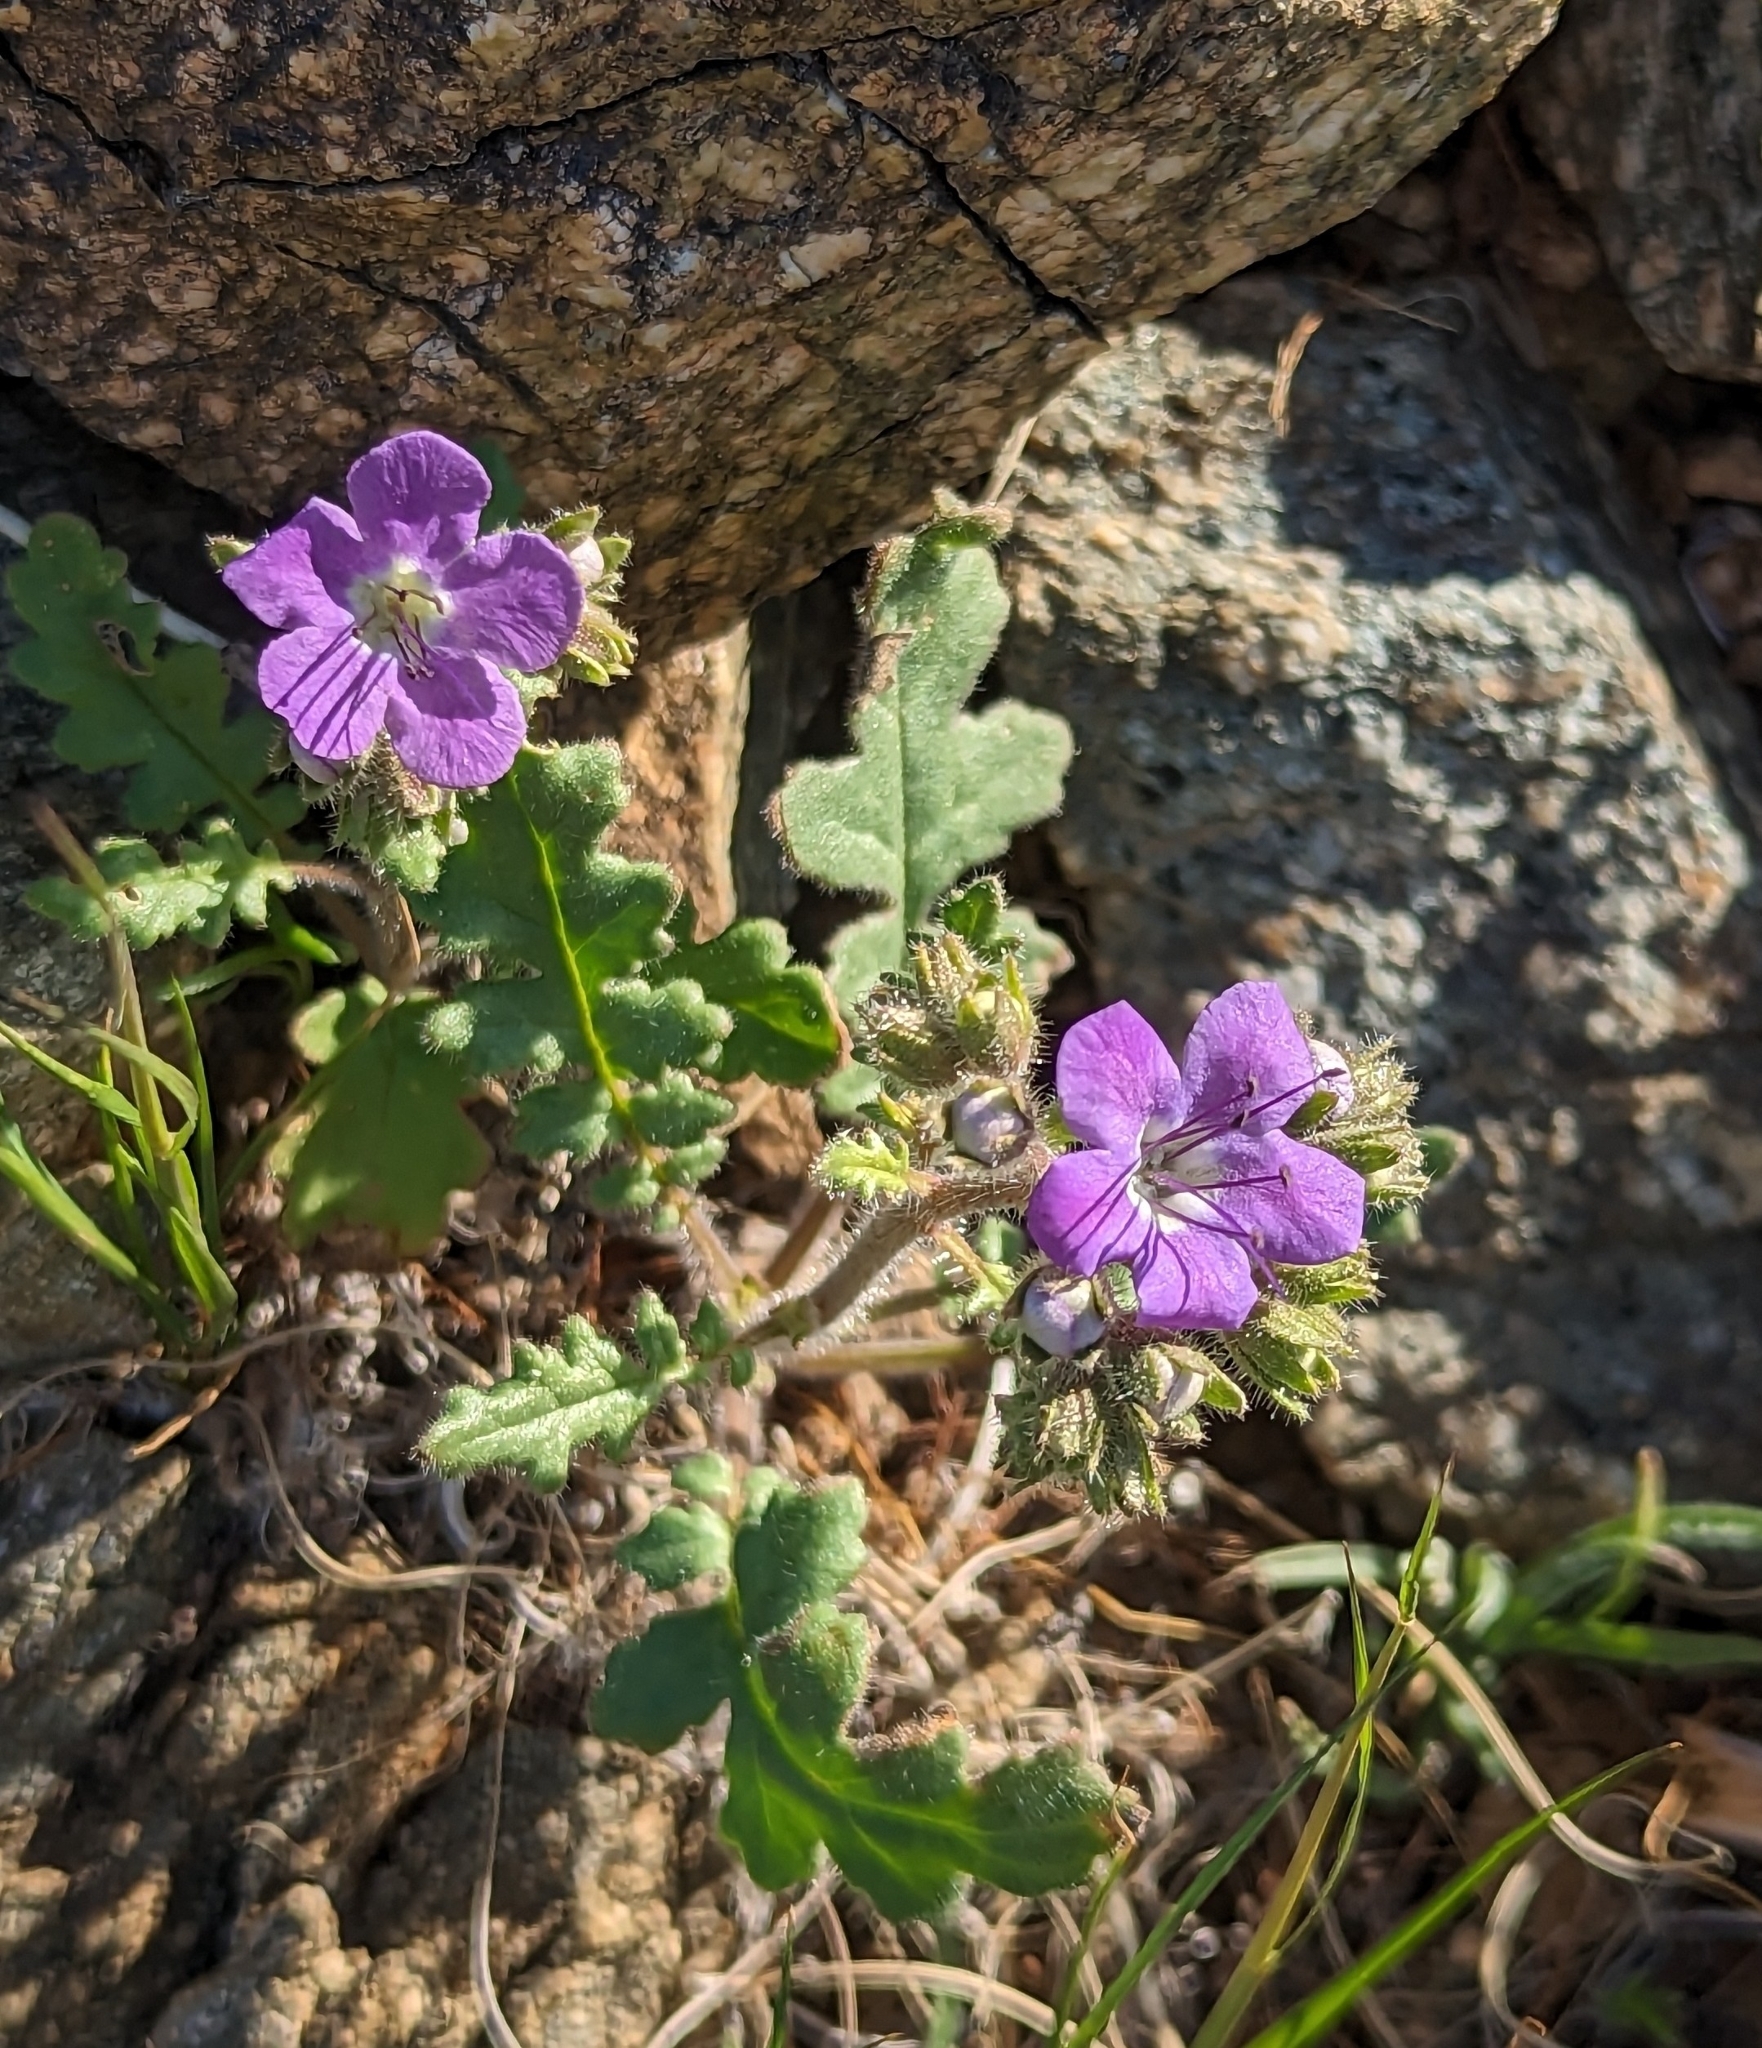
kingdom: Plantae
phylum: Tracheophyta
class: Magnoliopsida
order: Boraginales
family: Hydrophyllaceae
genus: Phacelia
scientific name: Phacelia crenulata
